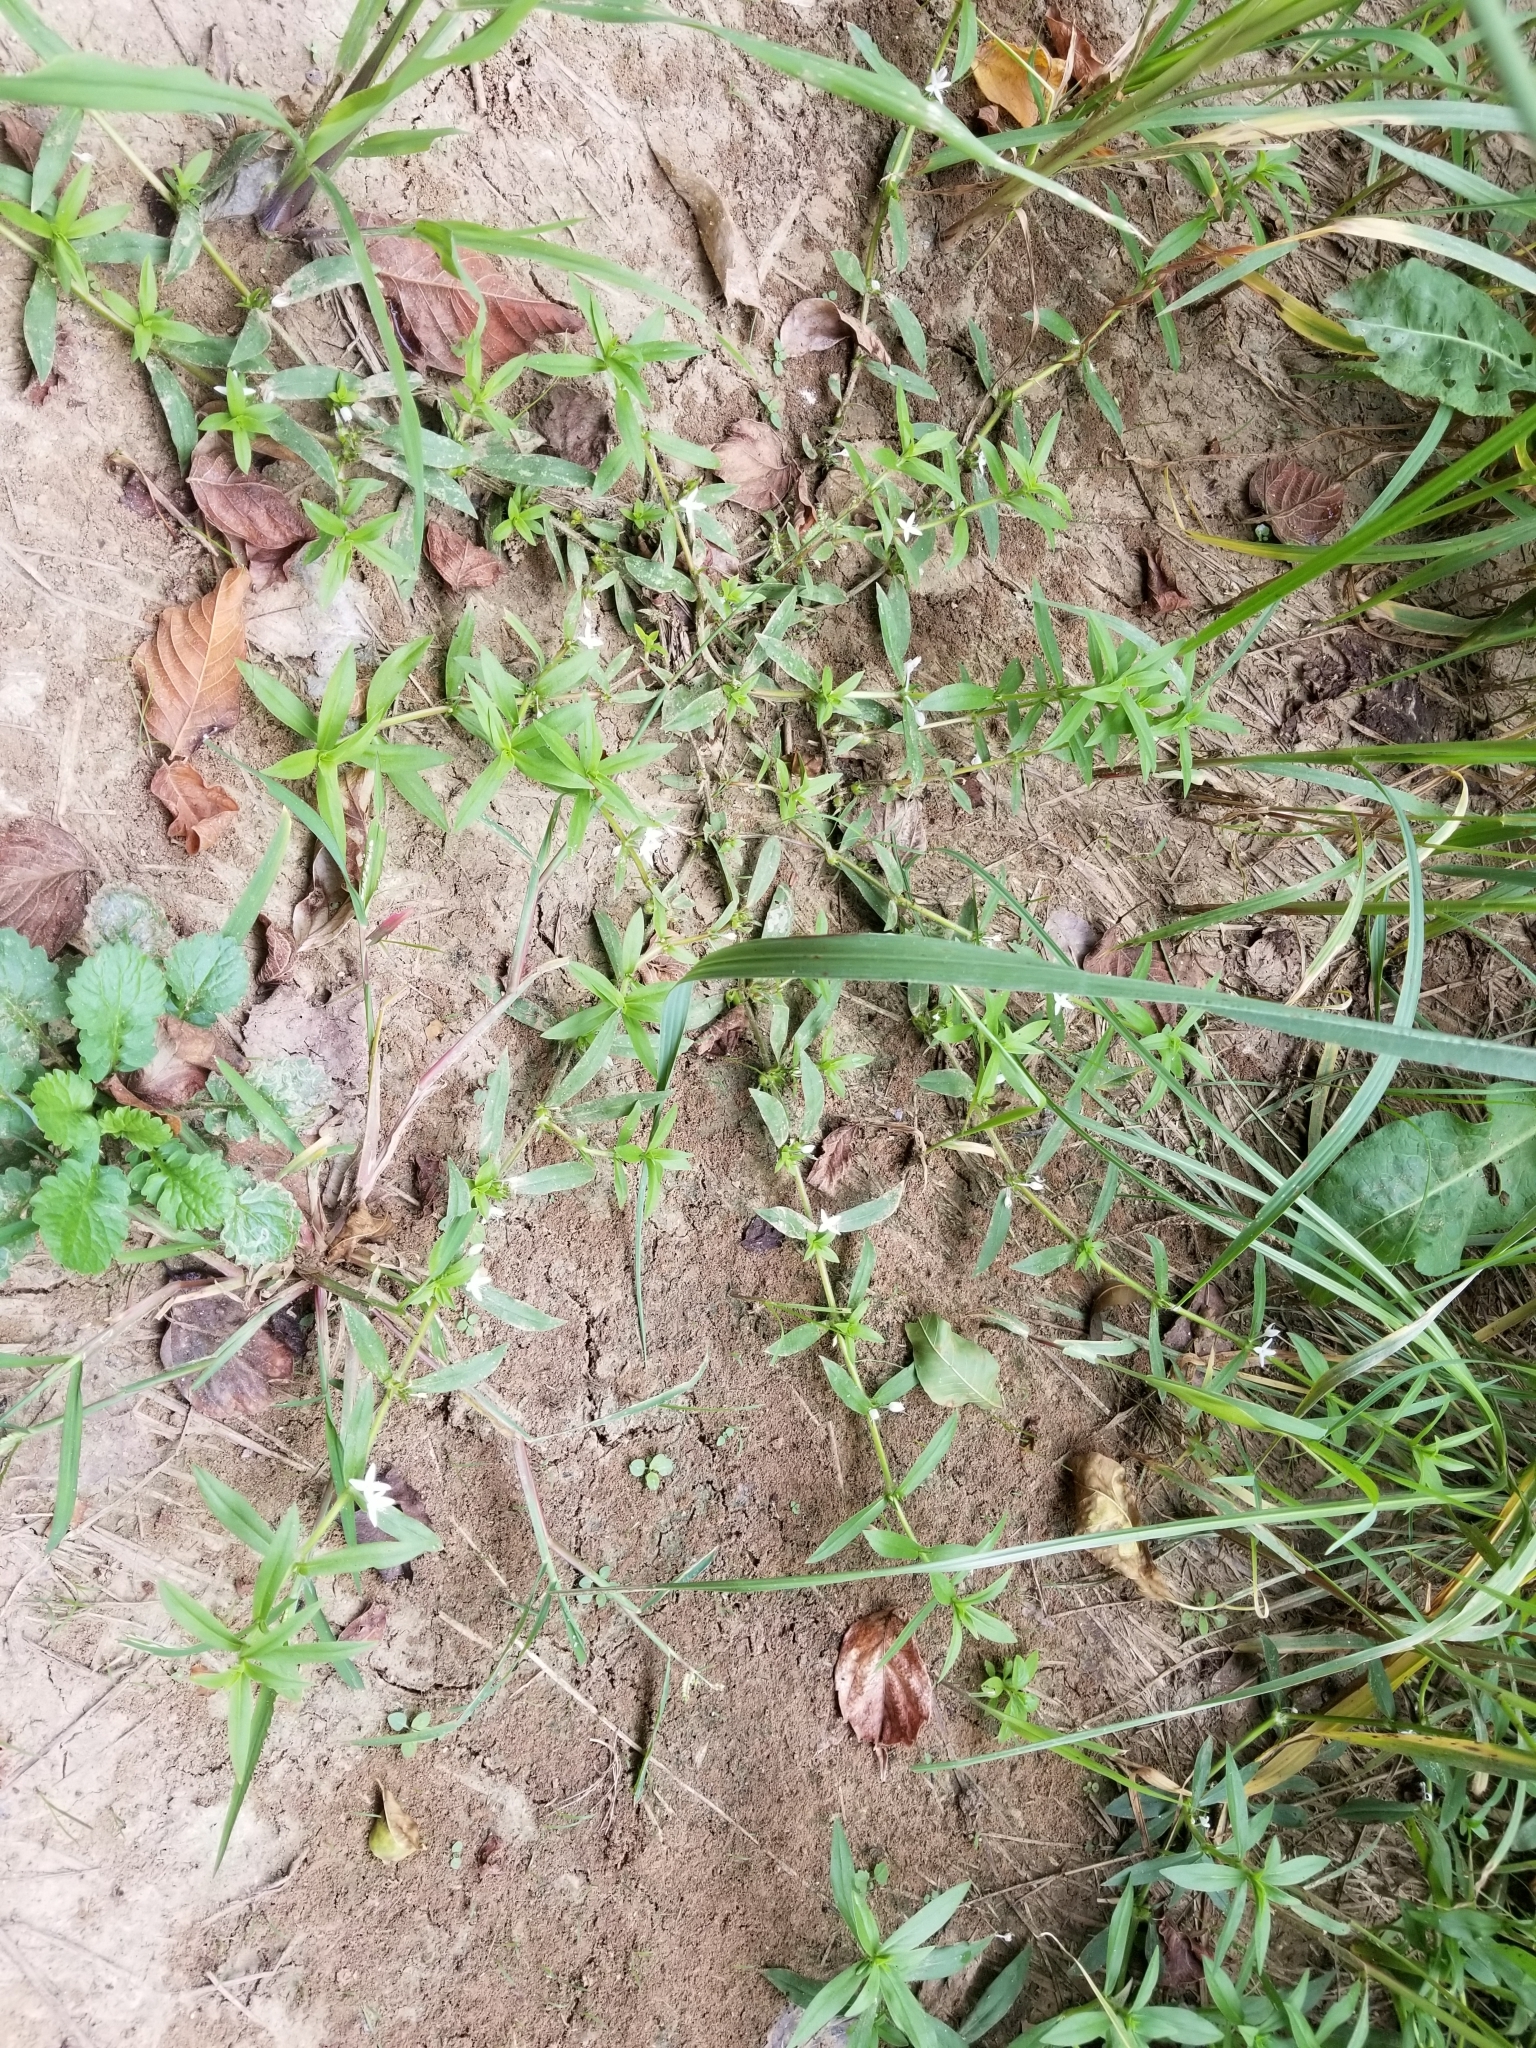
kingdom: Plantae
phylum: Tracheophyta
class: Magnoliopsida
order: Gentianales
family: Rubiaceae
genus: Diodia
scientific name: Diodia virginiana
